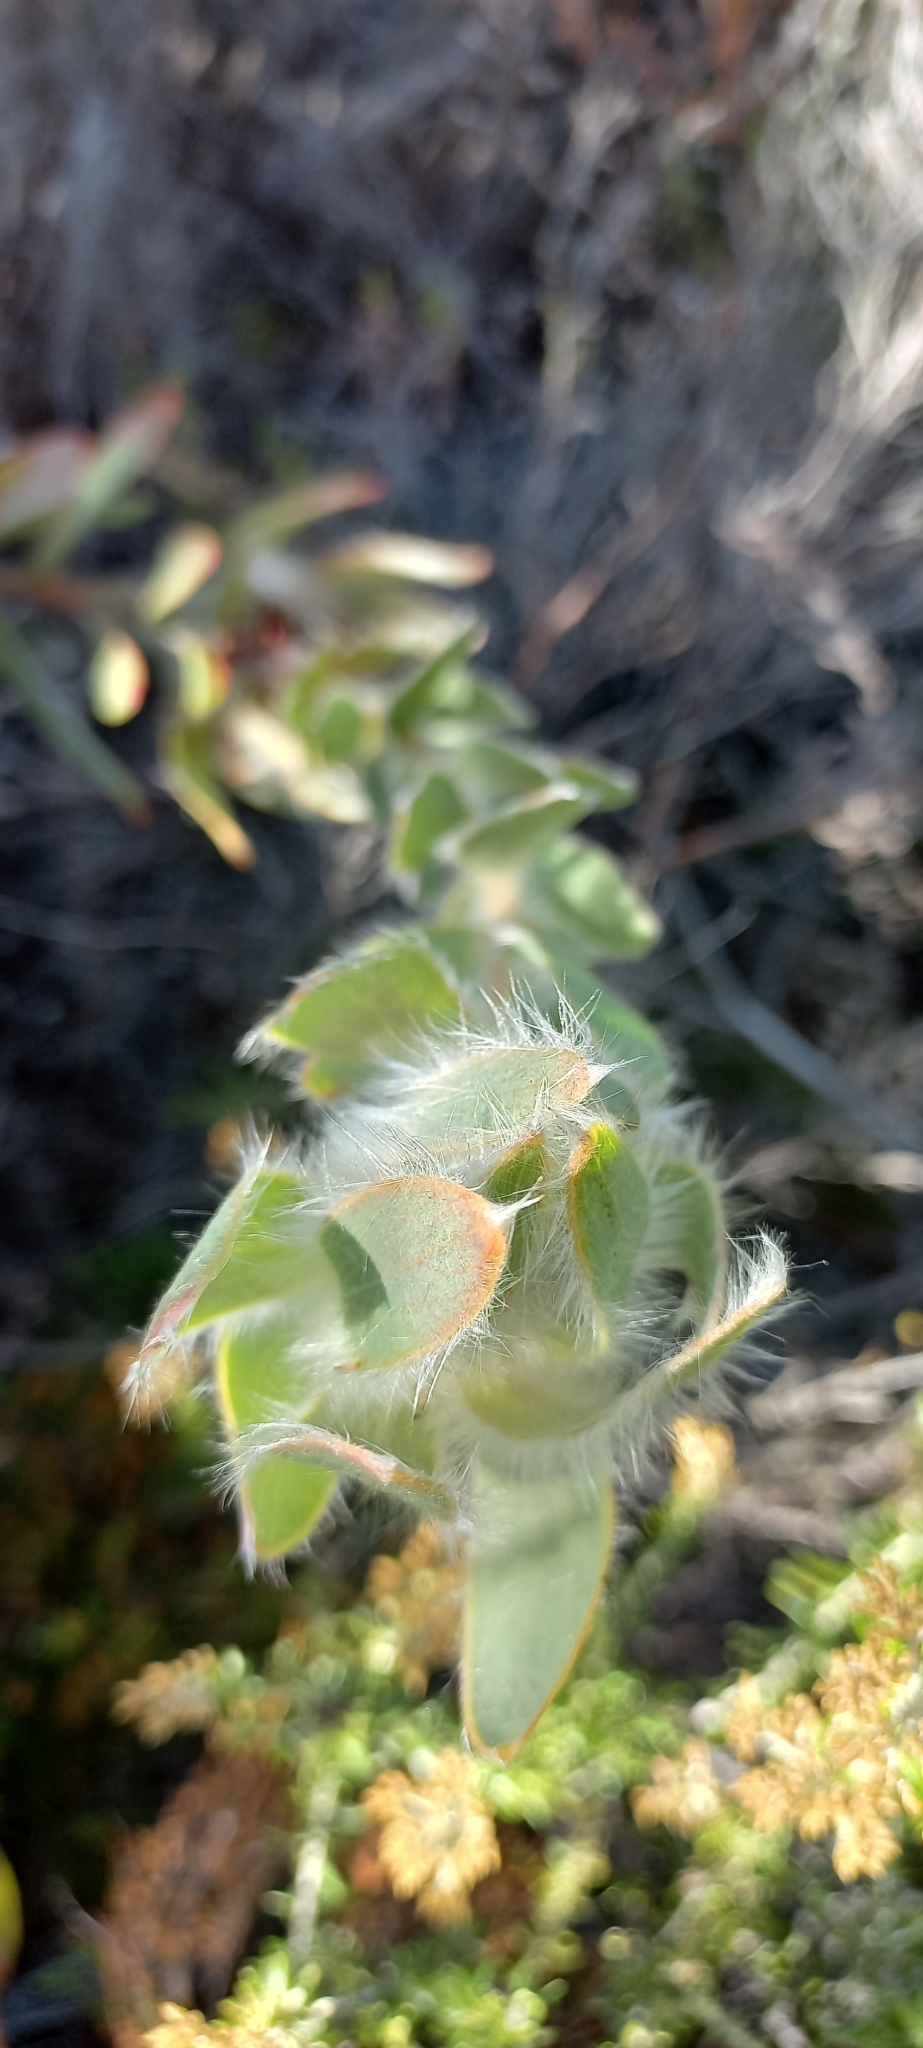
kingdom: Plantae
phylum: Tracheophyta
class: Magnoliopsida
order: Proteales
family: Proteaceae
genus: Leucadendron
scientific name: Leucadendron nervosum
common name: Silky-ruff conebush
